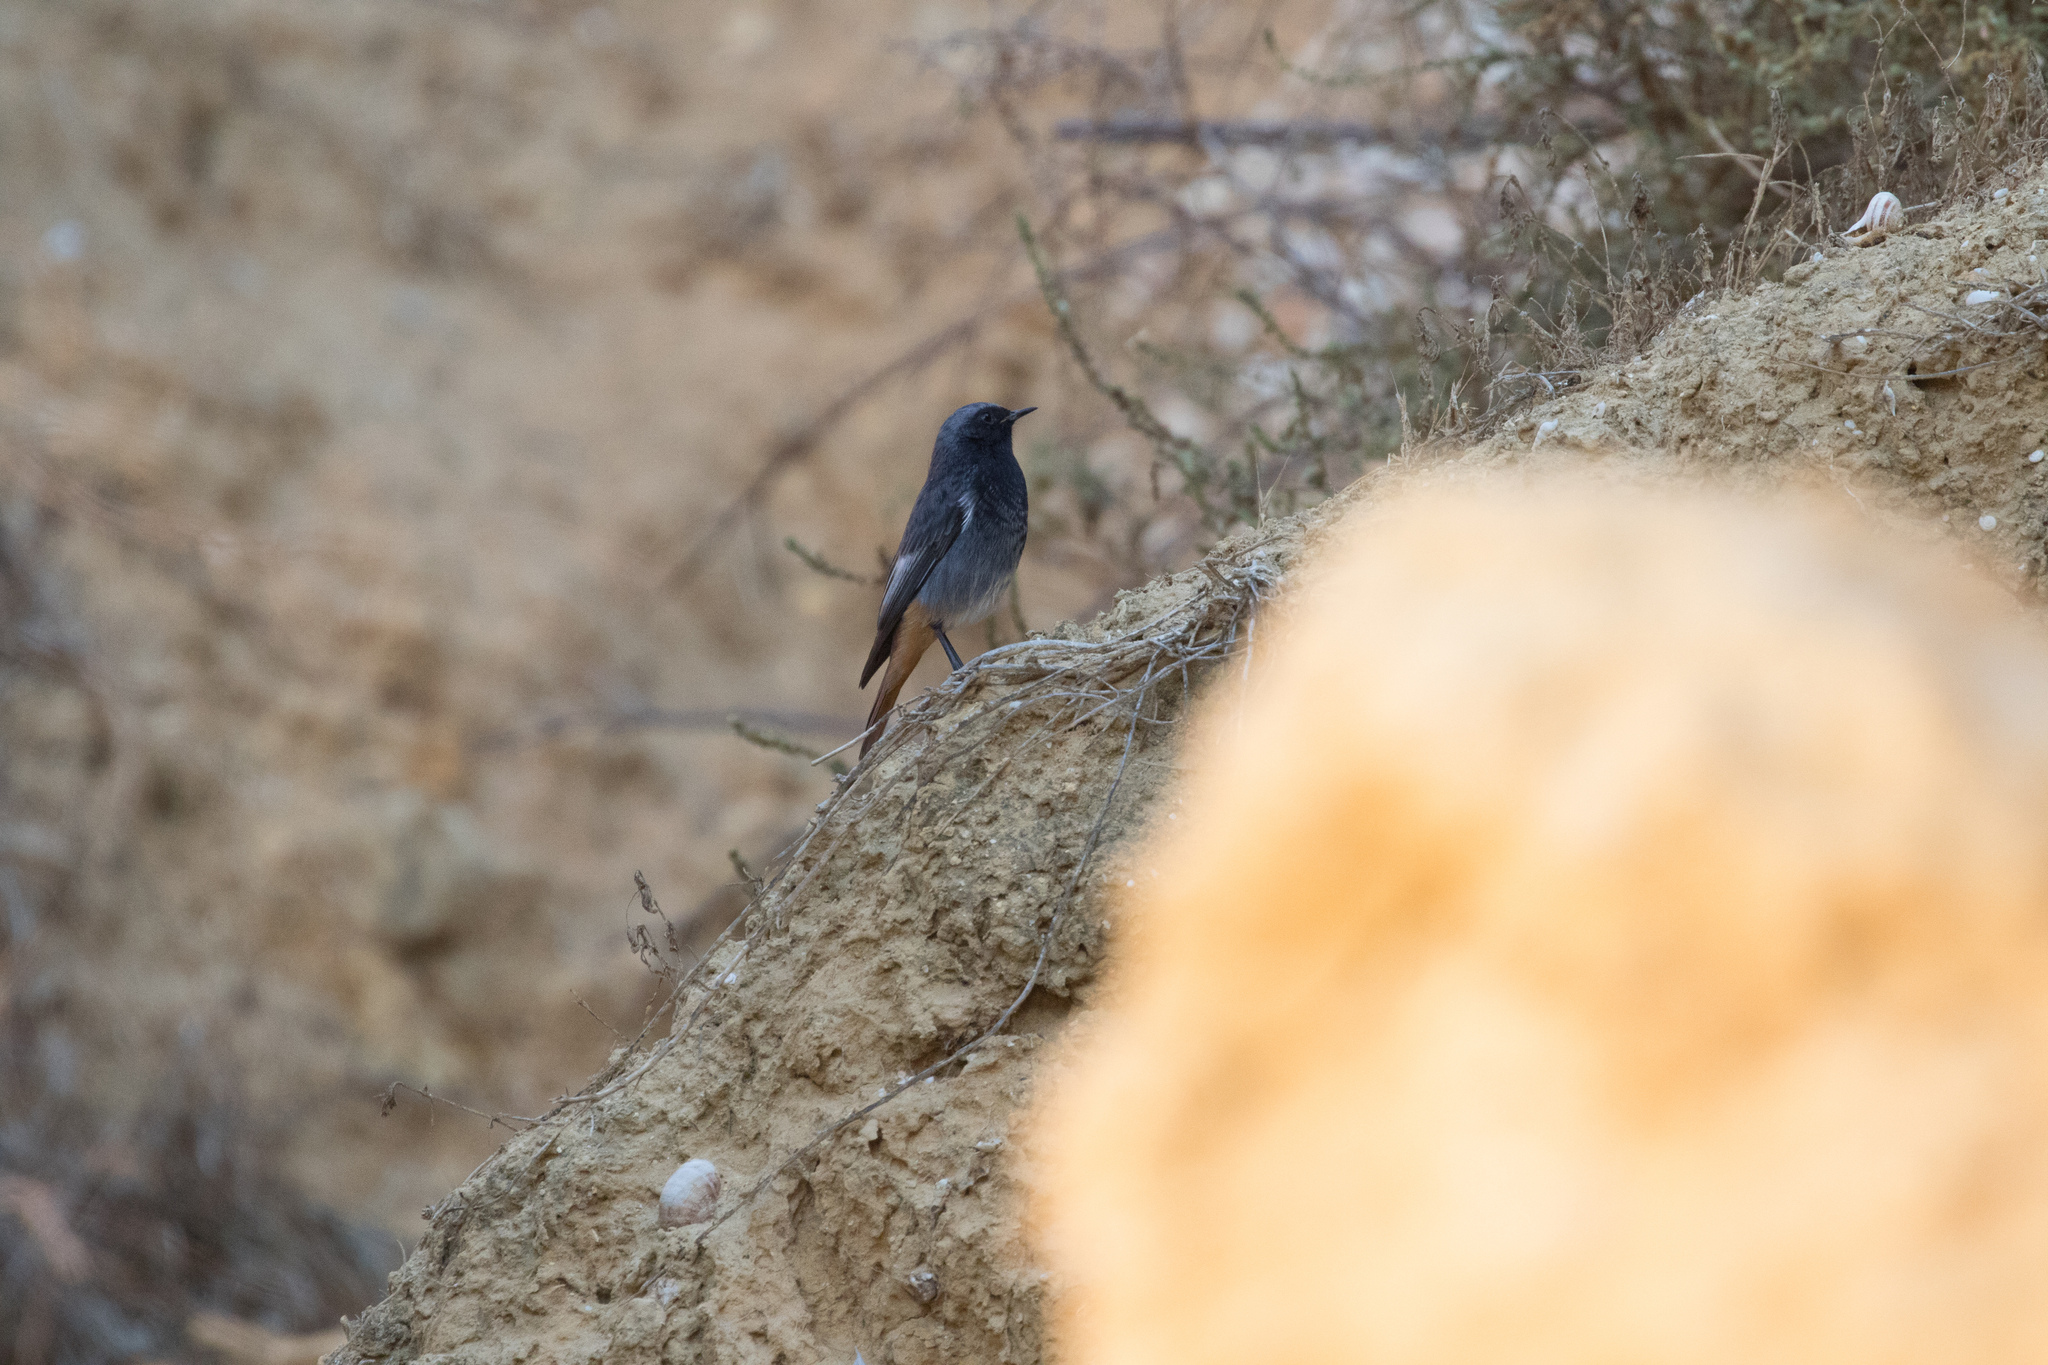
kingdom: Animalia
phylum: Chordata
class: Aves
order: Passeriformes
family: Muscicapidae
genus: Phoenicurus
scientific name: Phoenicurus ochruros
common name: Black redstart
